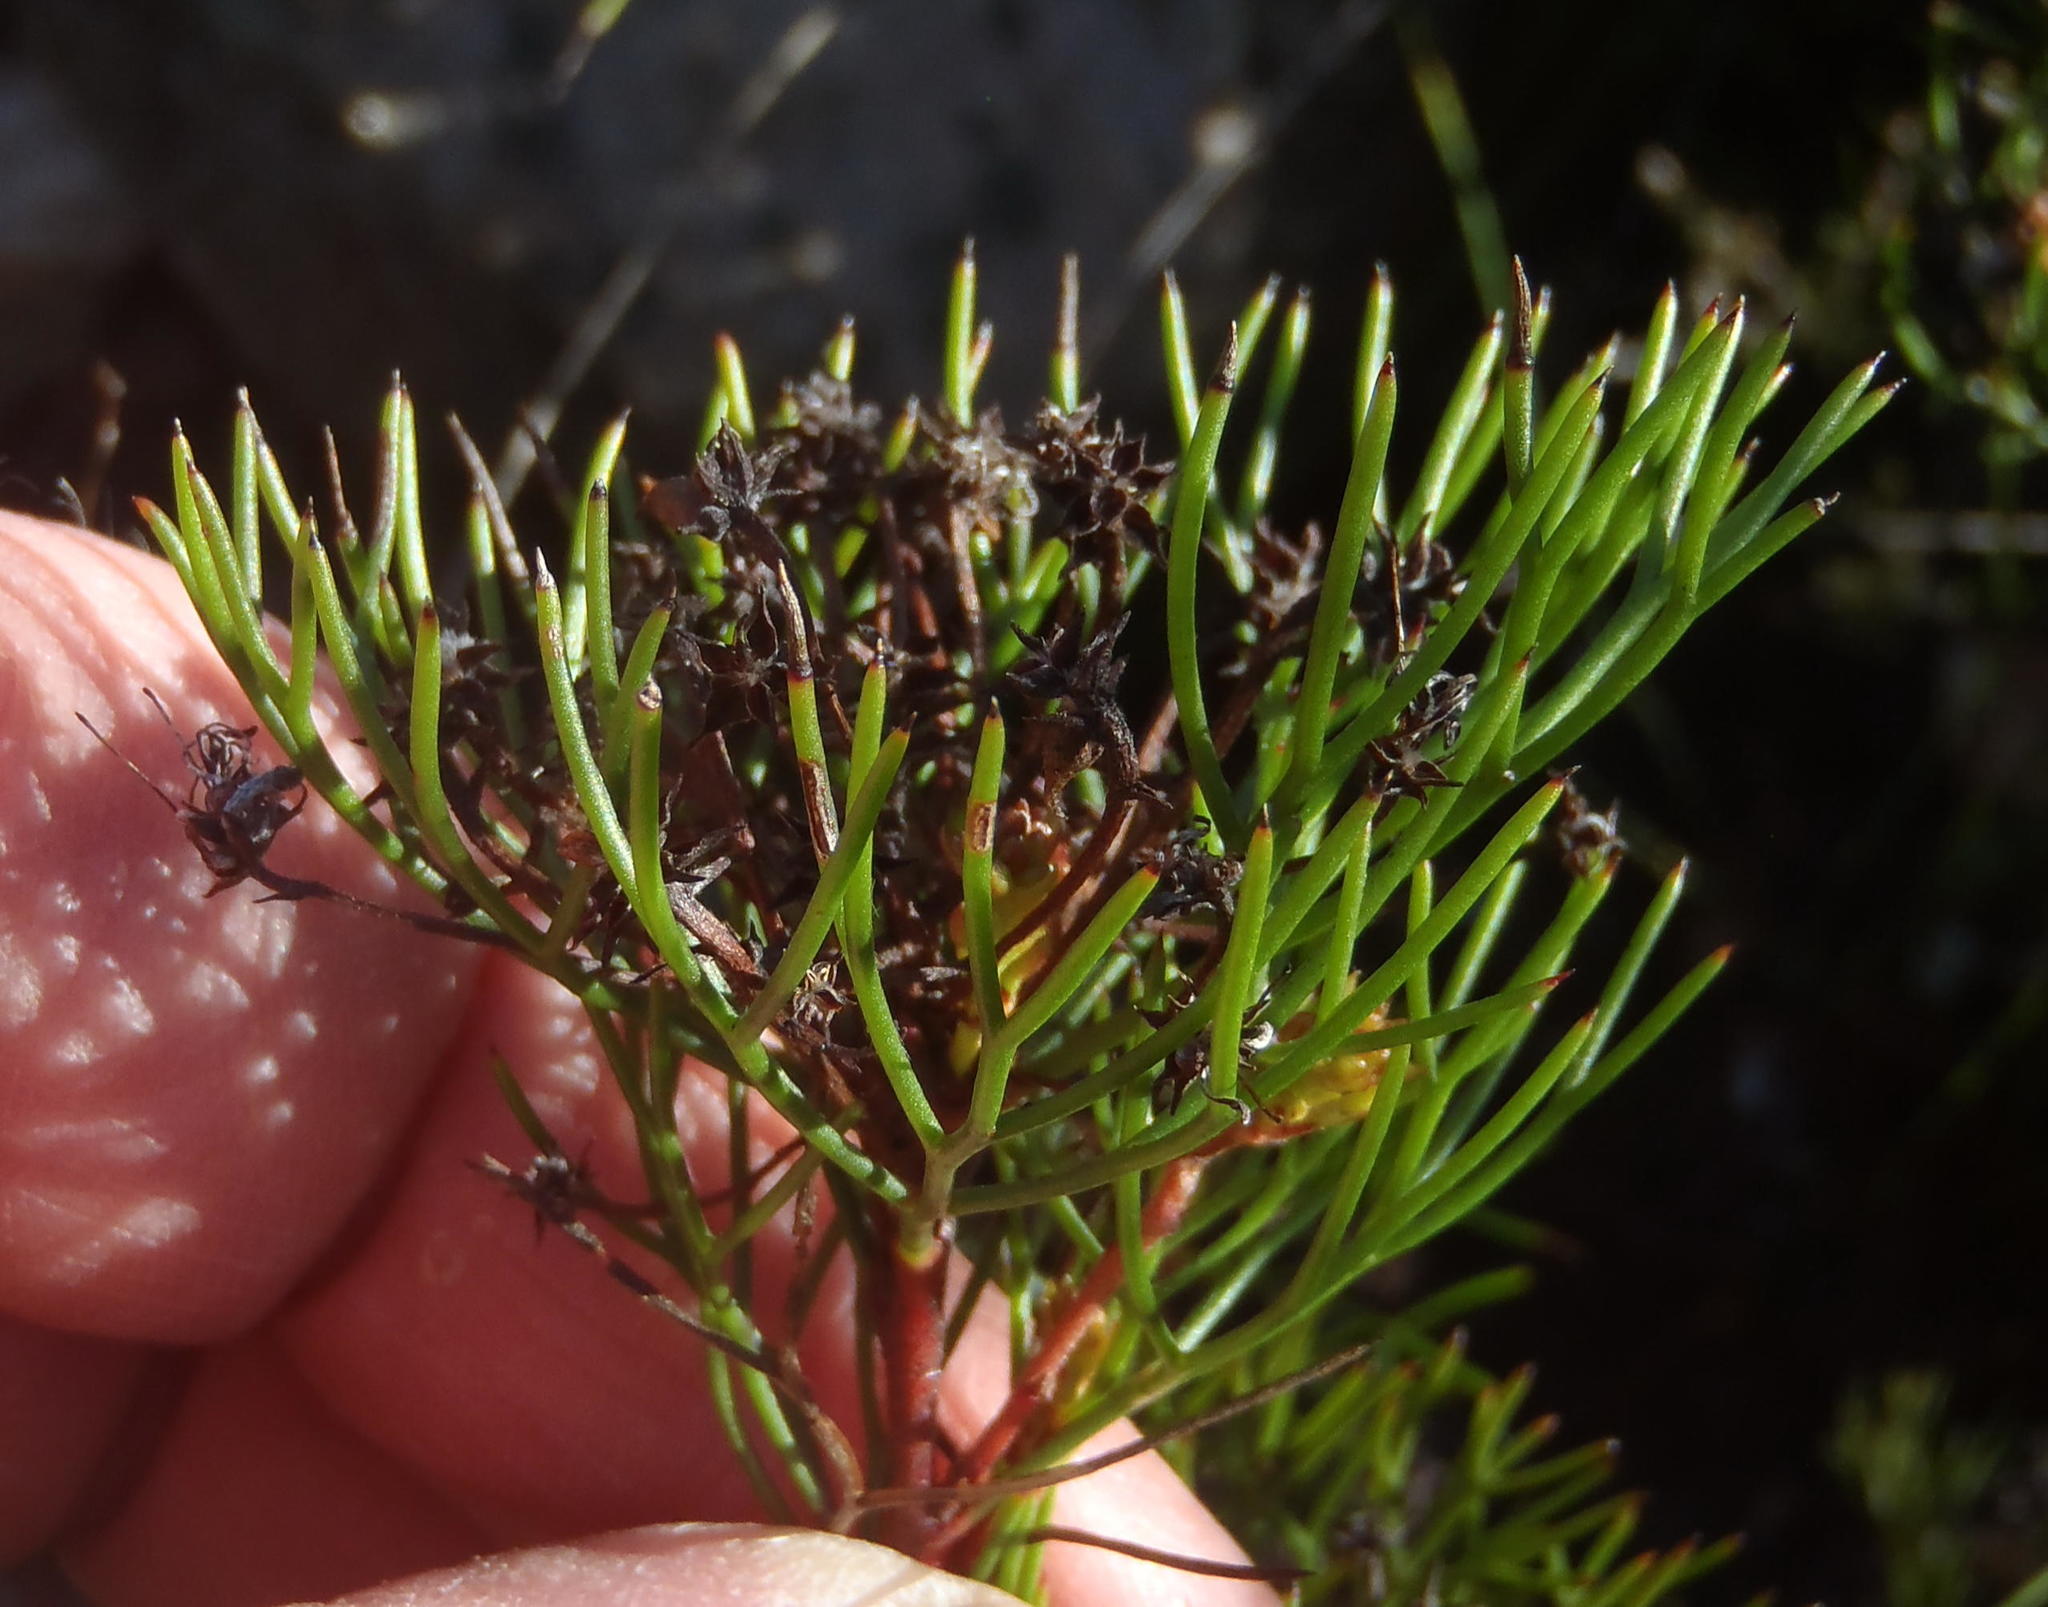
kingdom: Plantae
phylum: Tracheophyta
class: Magnoliopsida
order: Proteales
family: Proteaceae
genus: Serruria
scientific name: Serruria fasciflora
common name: Common pin spiderhead
